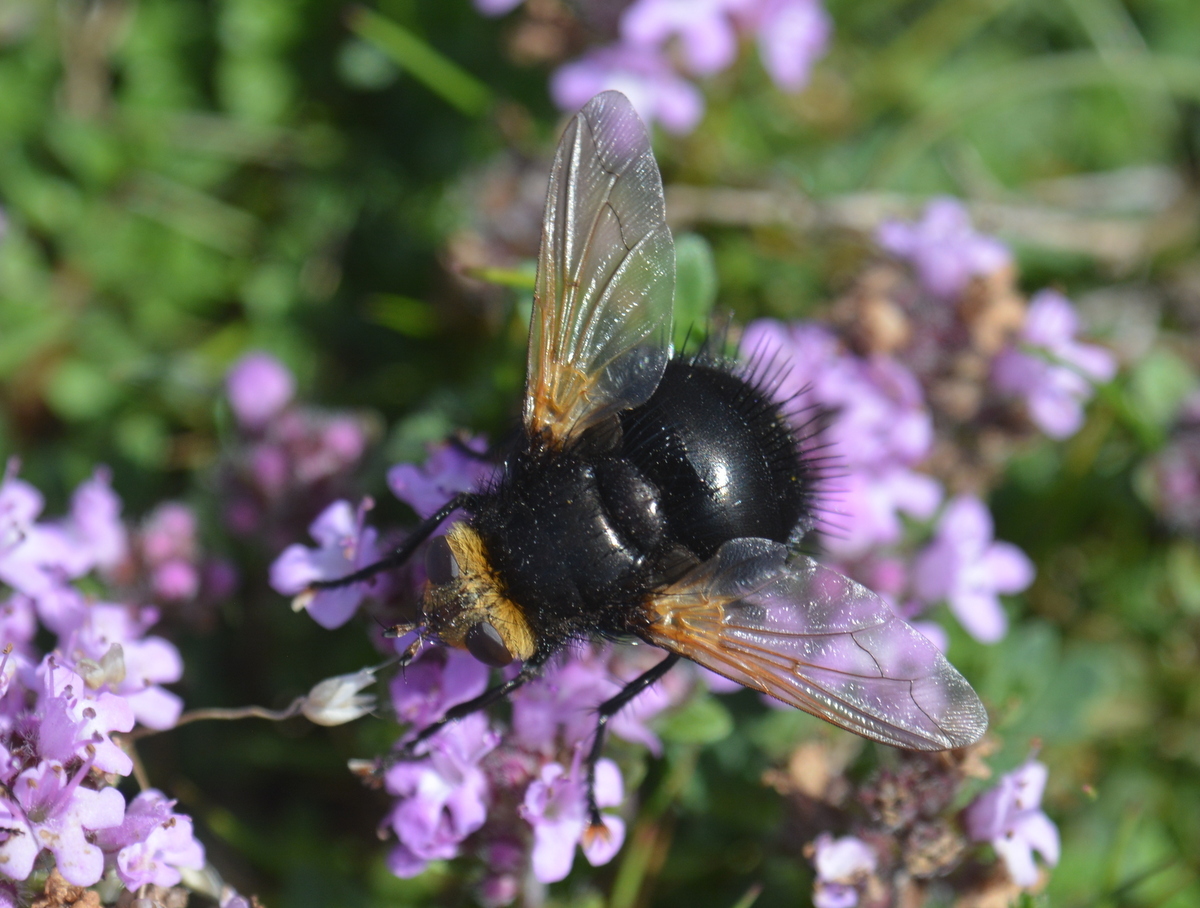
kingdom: Animalia
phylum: Arthropoda
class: Insecta
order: Diptera
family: Tachinidae
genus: Tachina
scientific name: Tachina grossa
